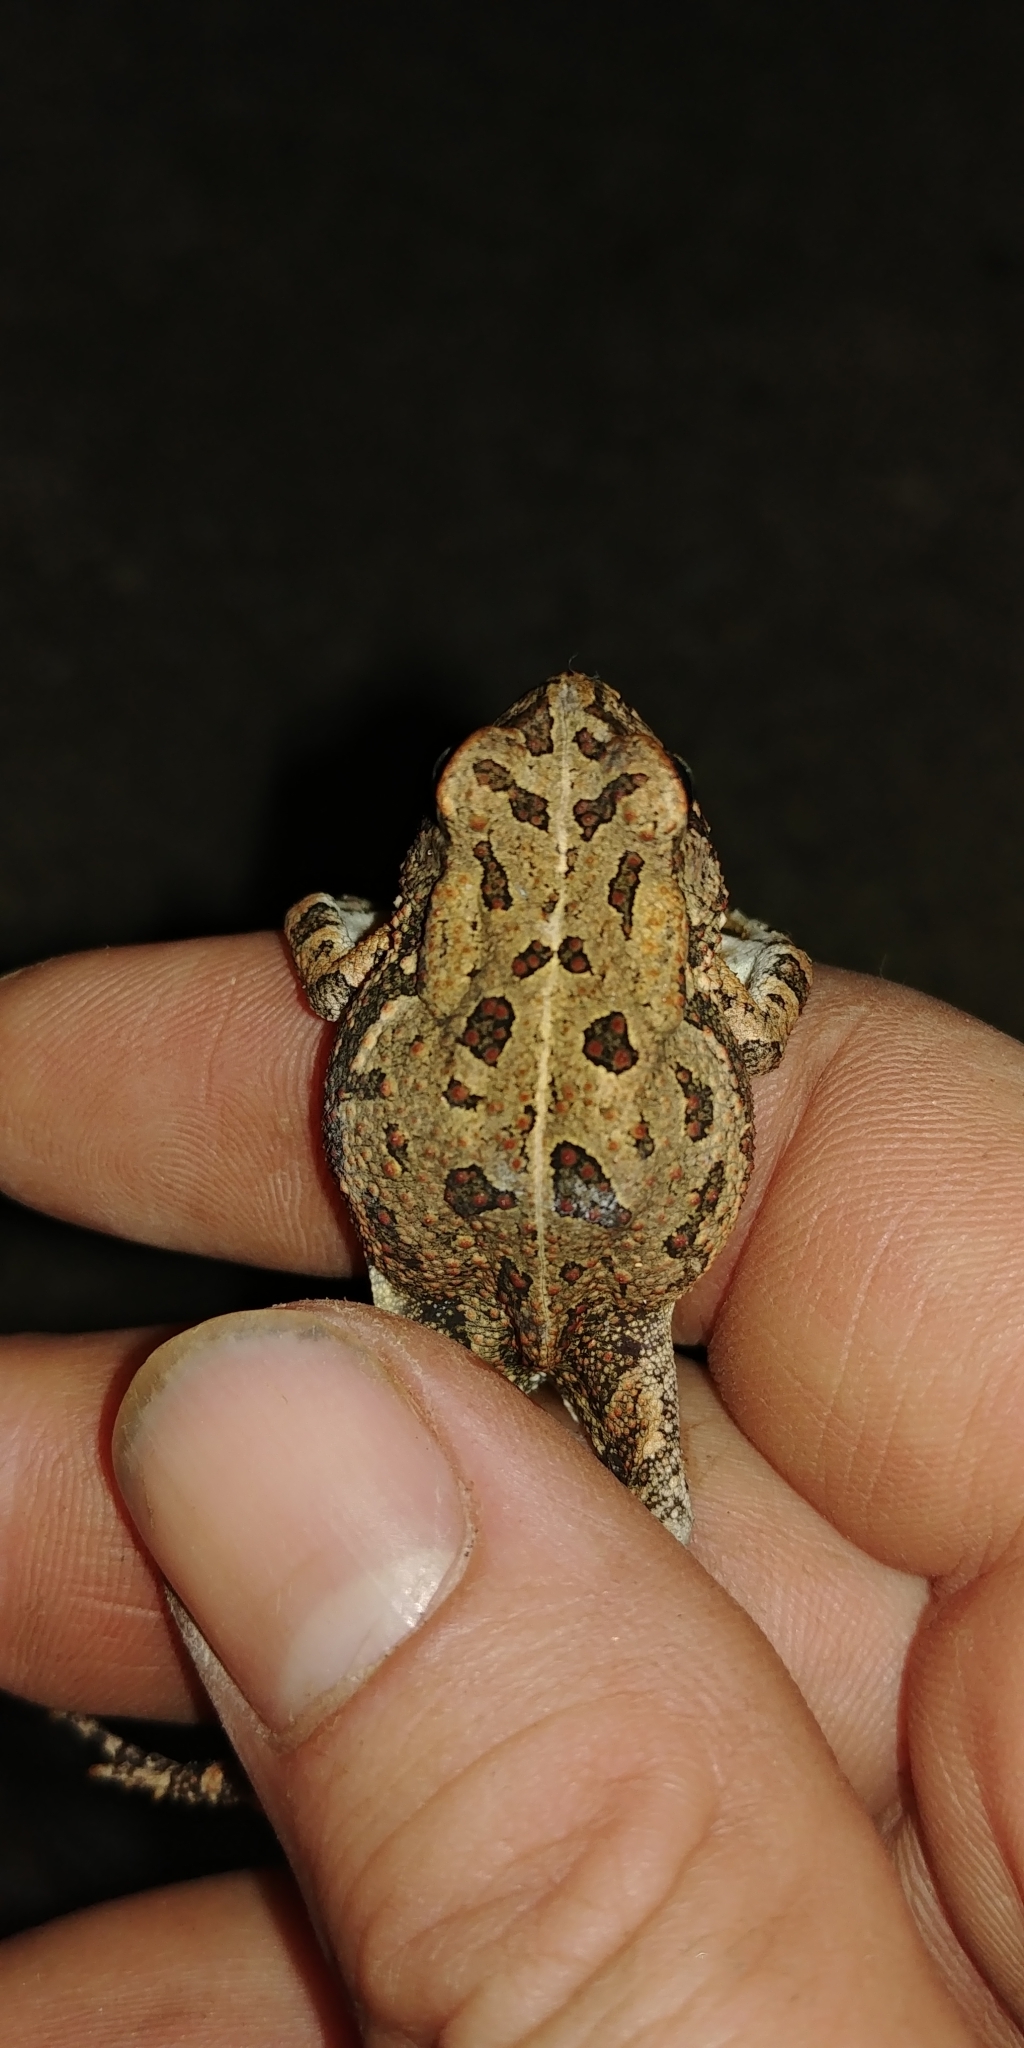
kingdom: Animalia
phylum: Chordata
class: Amphibia
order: Anura
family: Bufonidae
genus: Anaxyrus
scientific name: Anaxyrus fowleri
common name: Fowler's toad
